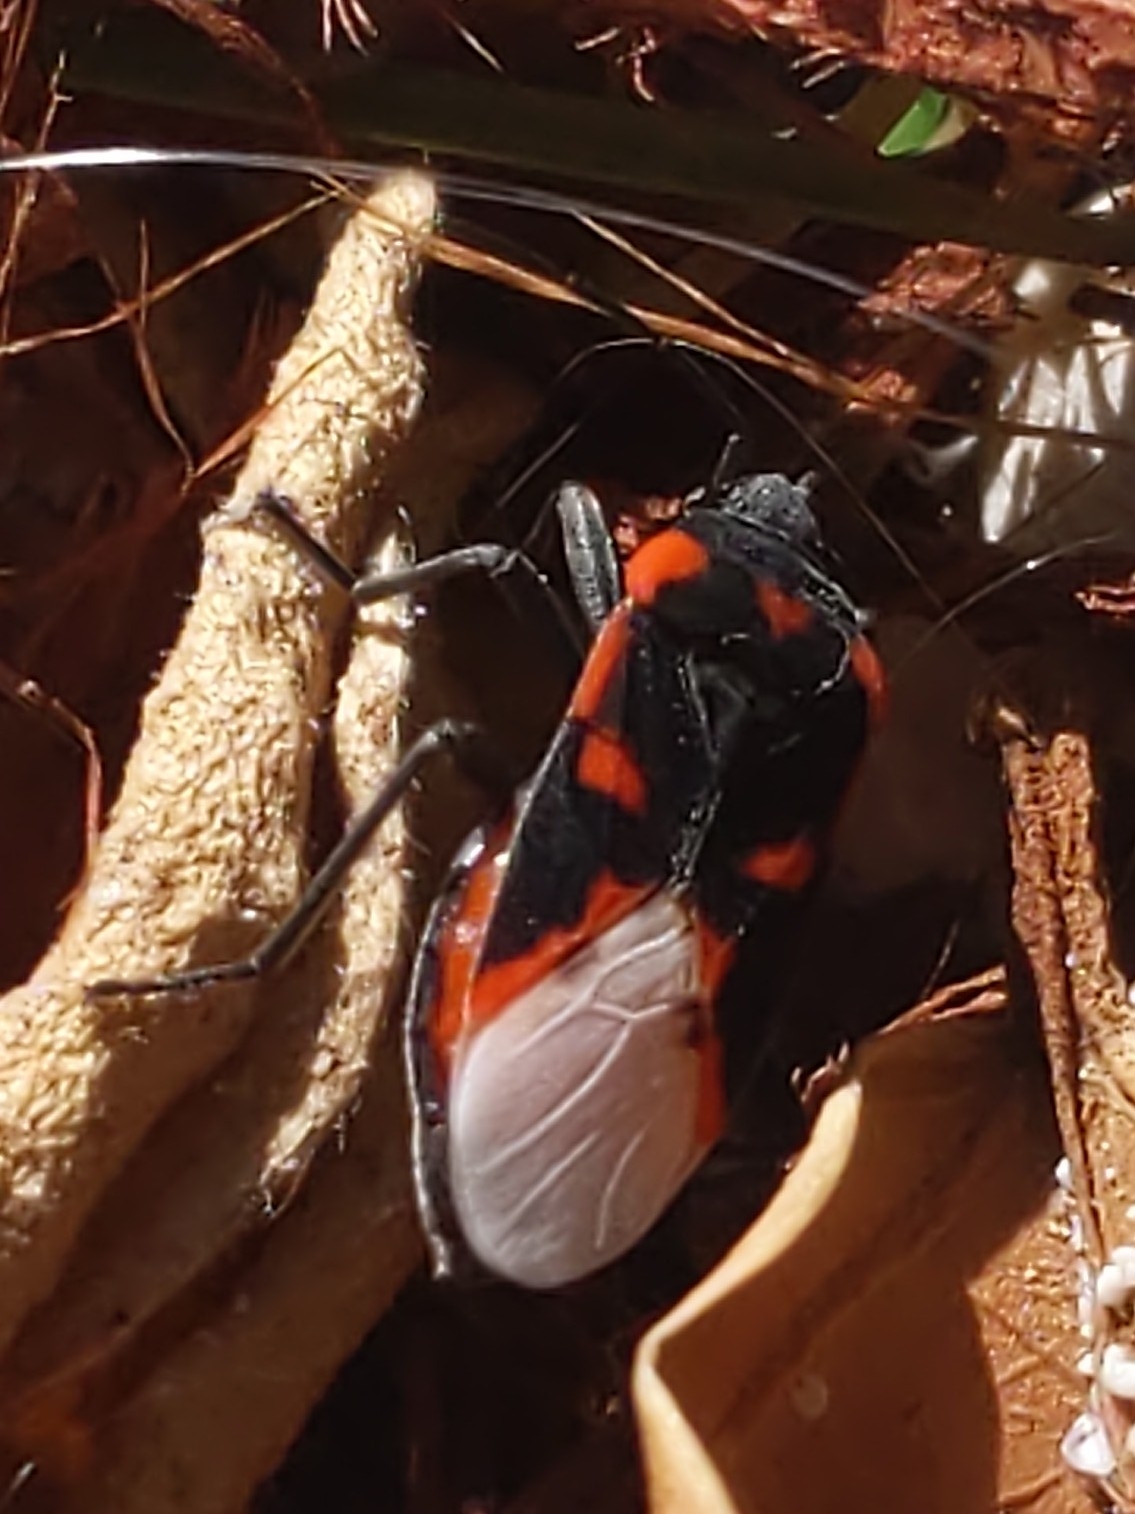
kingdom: Animalia
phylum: Arthropoda
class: Insecta
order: Hemiptera
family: Lygaeidae
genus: Lygaeus
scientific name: Lygaeus bahamensis
